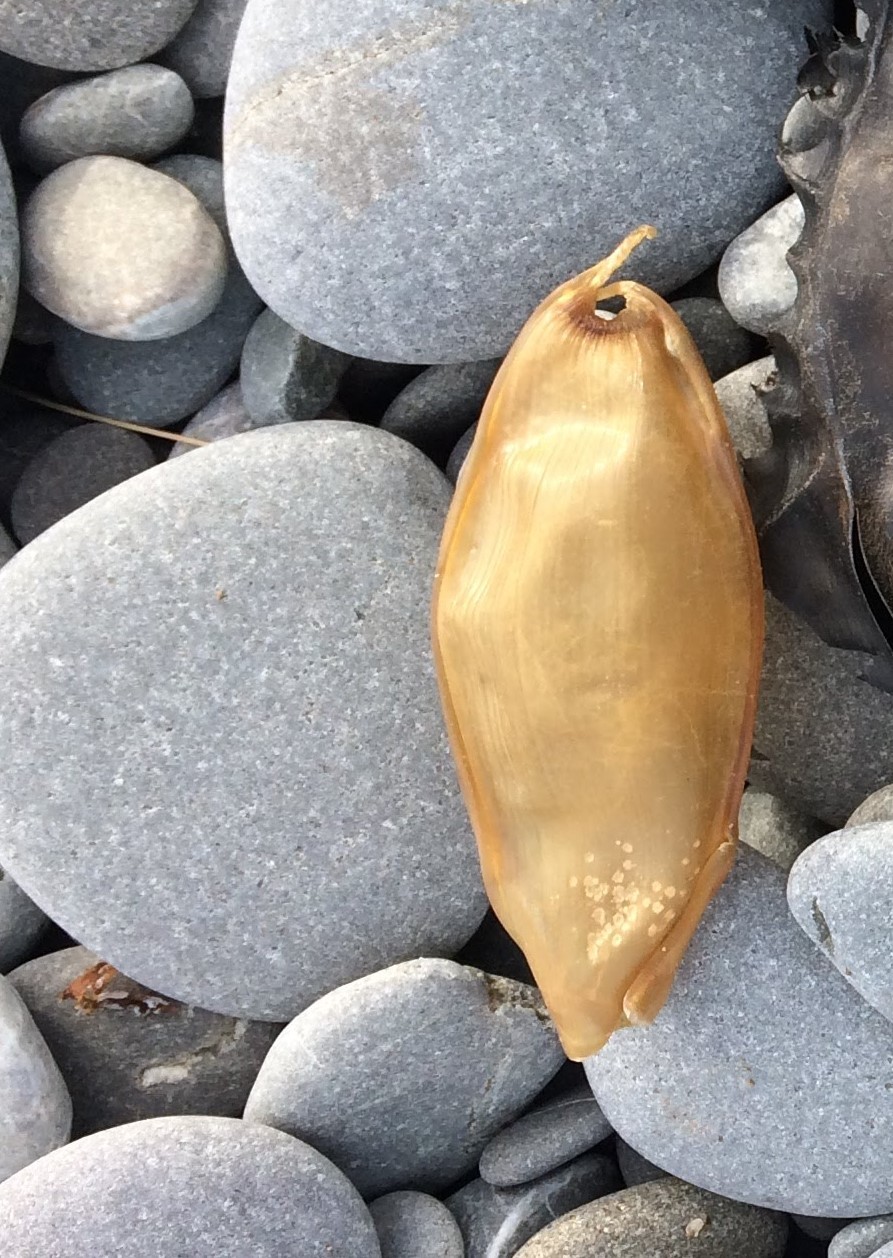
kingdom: Animalia
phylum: Chordata
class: Elasmobranchii
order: Carcharhiniformes
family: Scyliorhinidae
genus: Cephaloscyllium
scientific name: Cephaloscyllium isabellum
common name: Carpet shark
